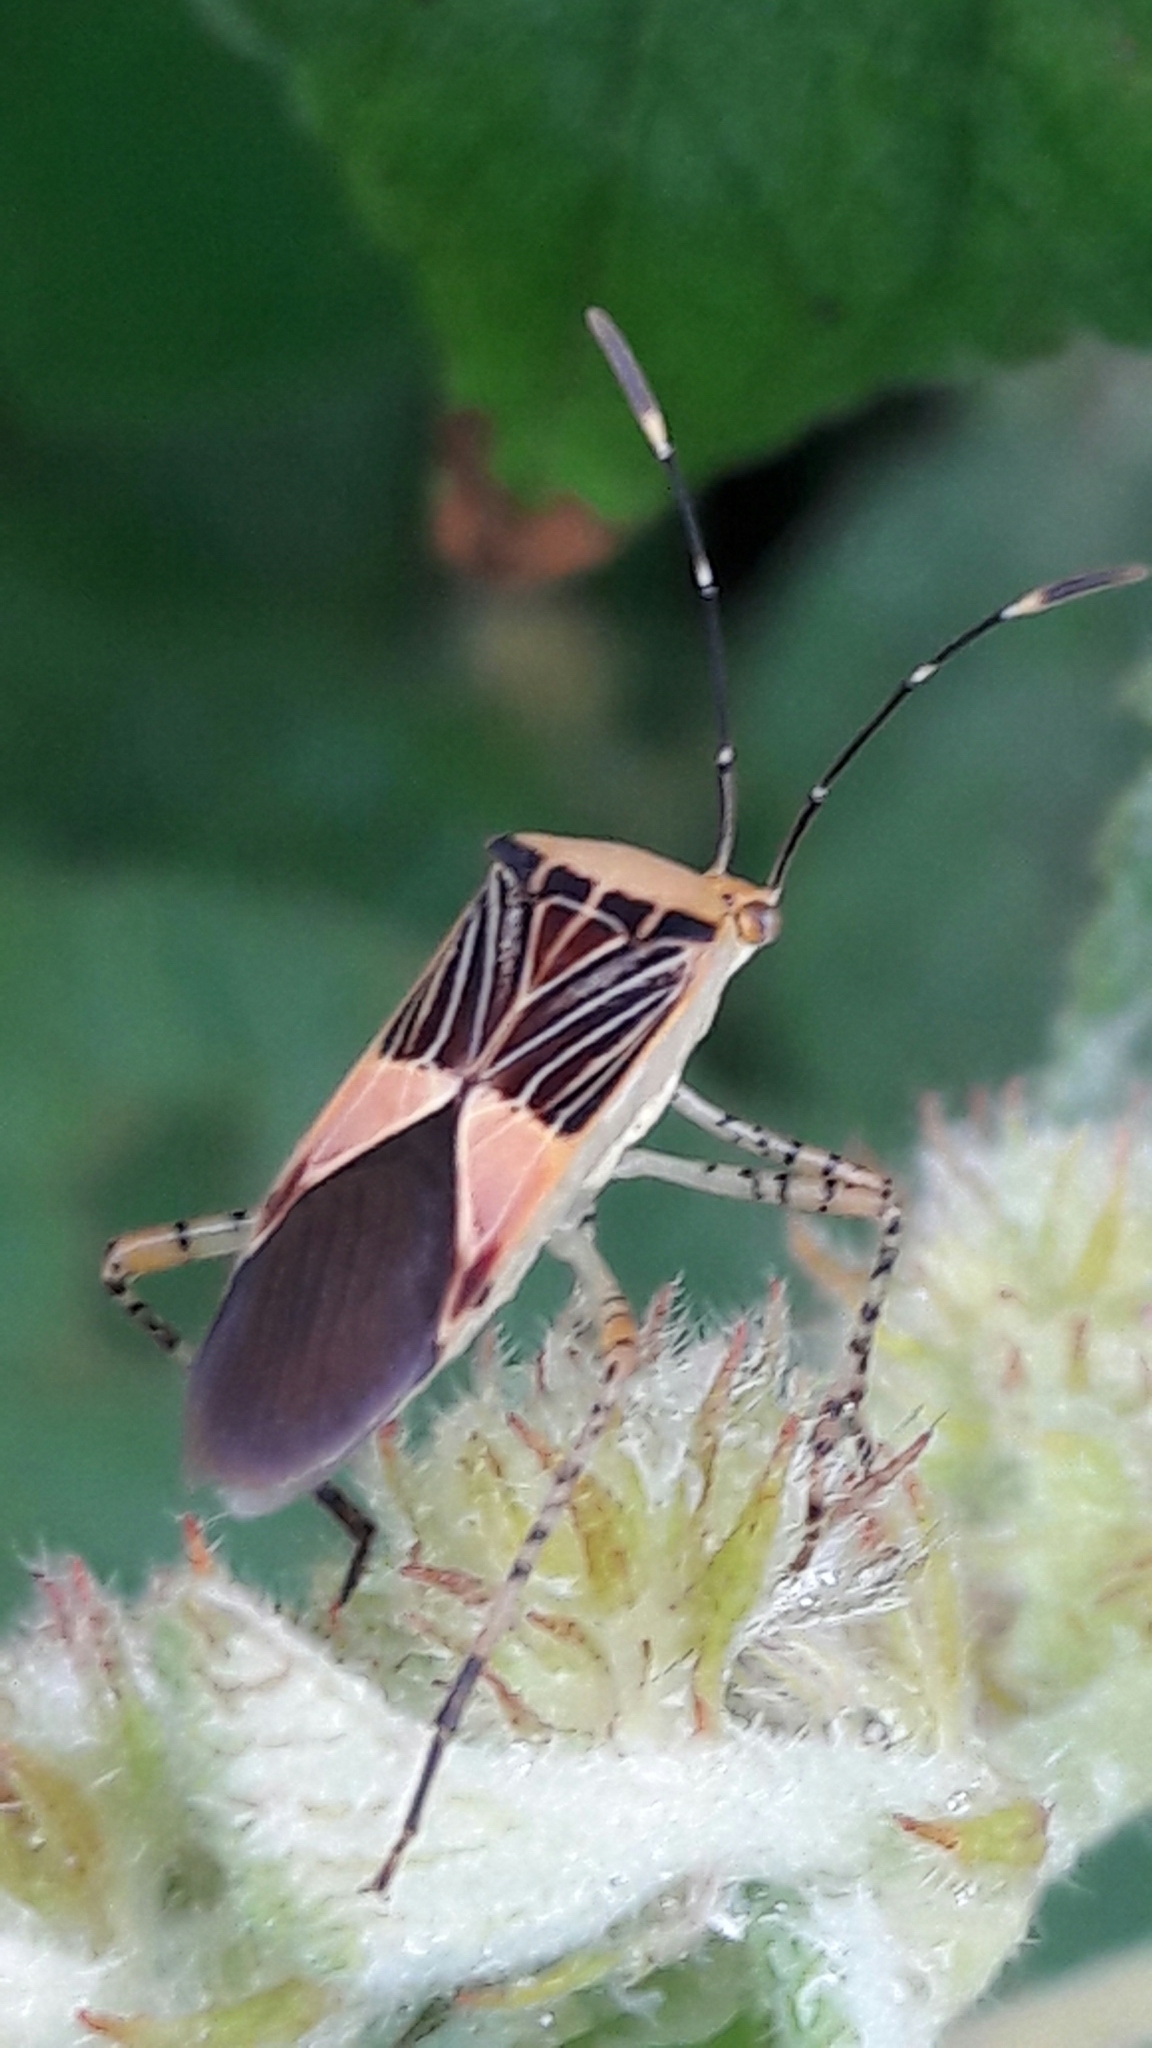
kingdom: Animalia
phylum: Arthropoda
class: Insecta
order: Hemiptera
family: Coreidae
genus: Hypselonotus
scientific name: Hypselonotus fulvus
